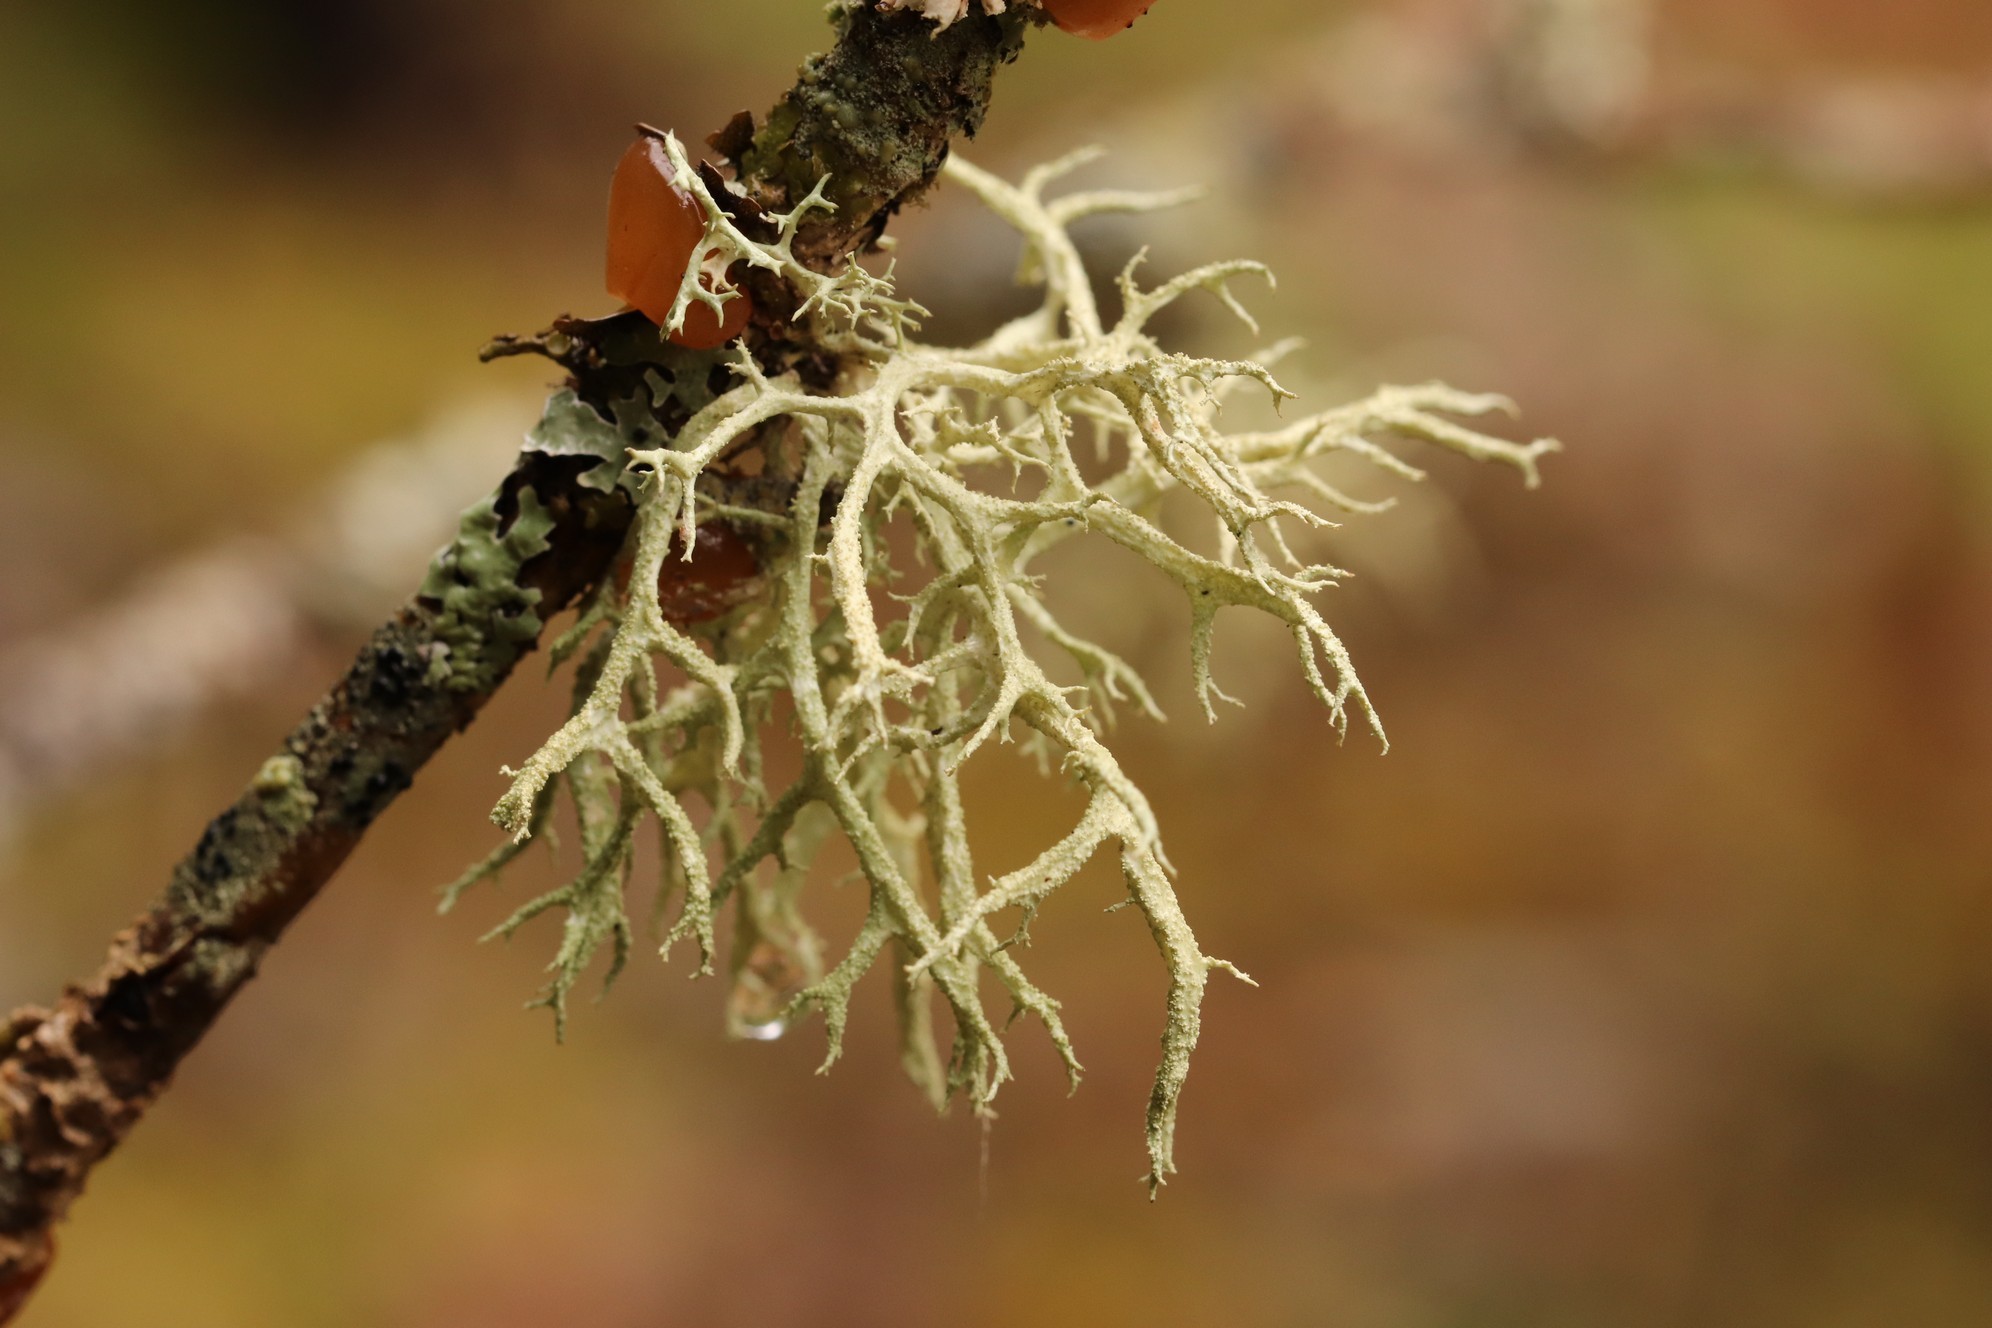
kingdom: Fungi
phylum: Ascomycota
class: Lecanoromycetes
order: Lecanorales
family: Parmeliaceae
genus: Evernia
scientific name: Evernia mesomorpha
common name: Boreal oak moss lichen
